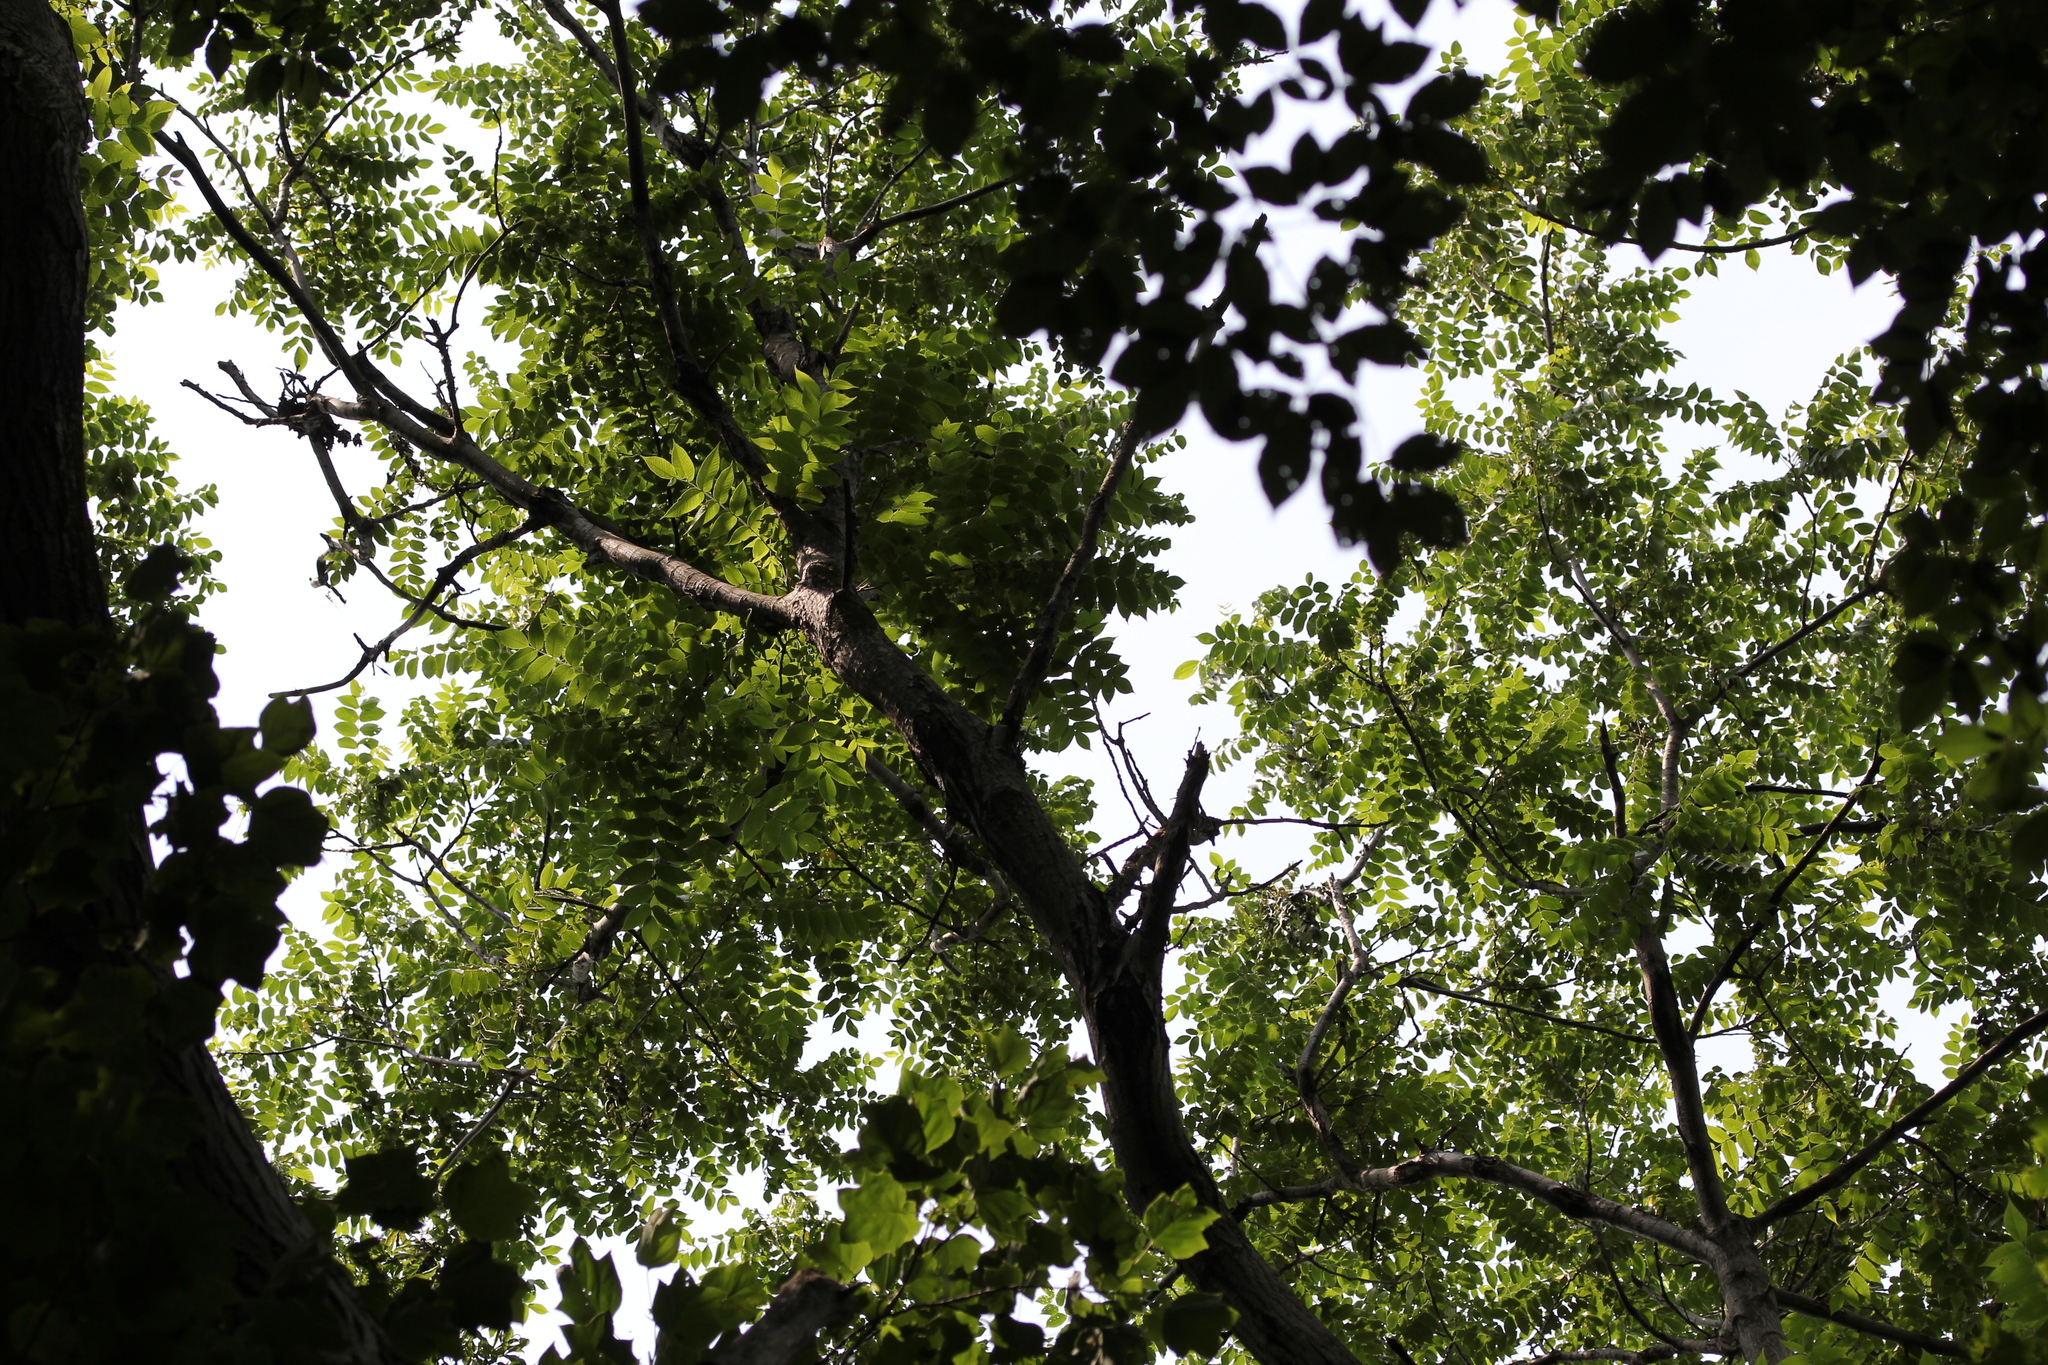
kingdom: Plantae
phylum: Tracheophyta
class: Magnoliopsida
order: Fagales
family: Juglandaceae
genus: Juglans
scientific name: Juglans cinerea
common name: Butternut
